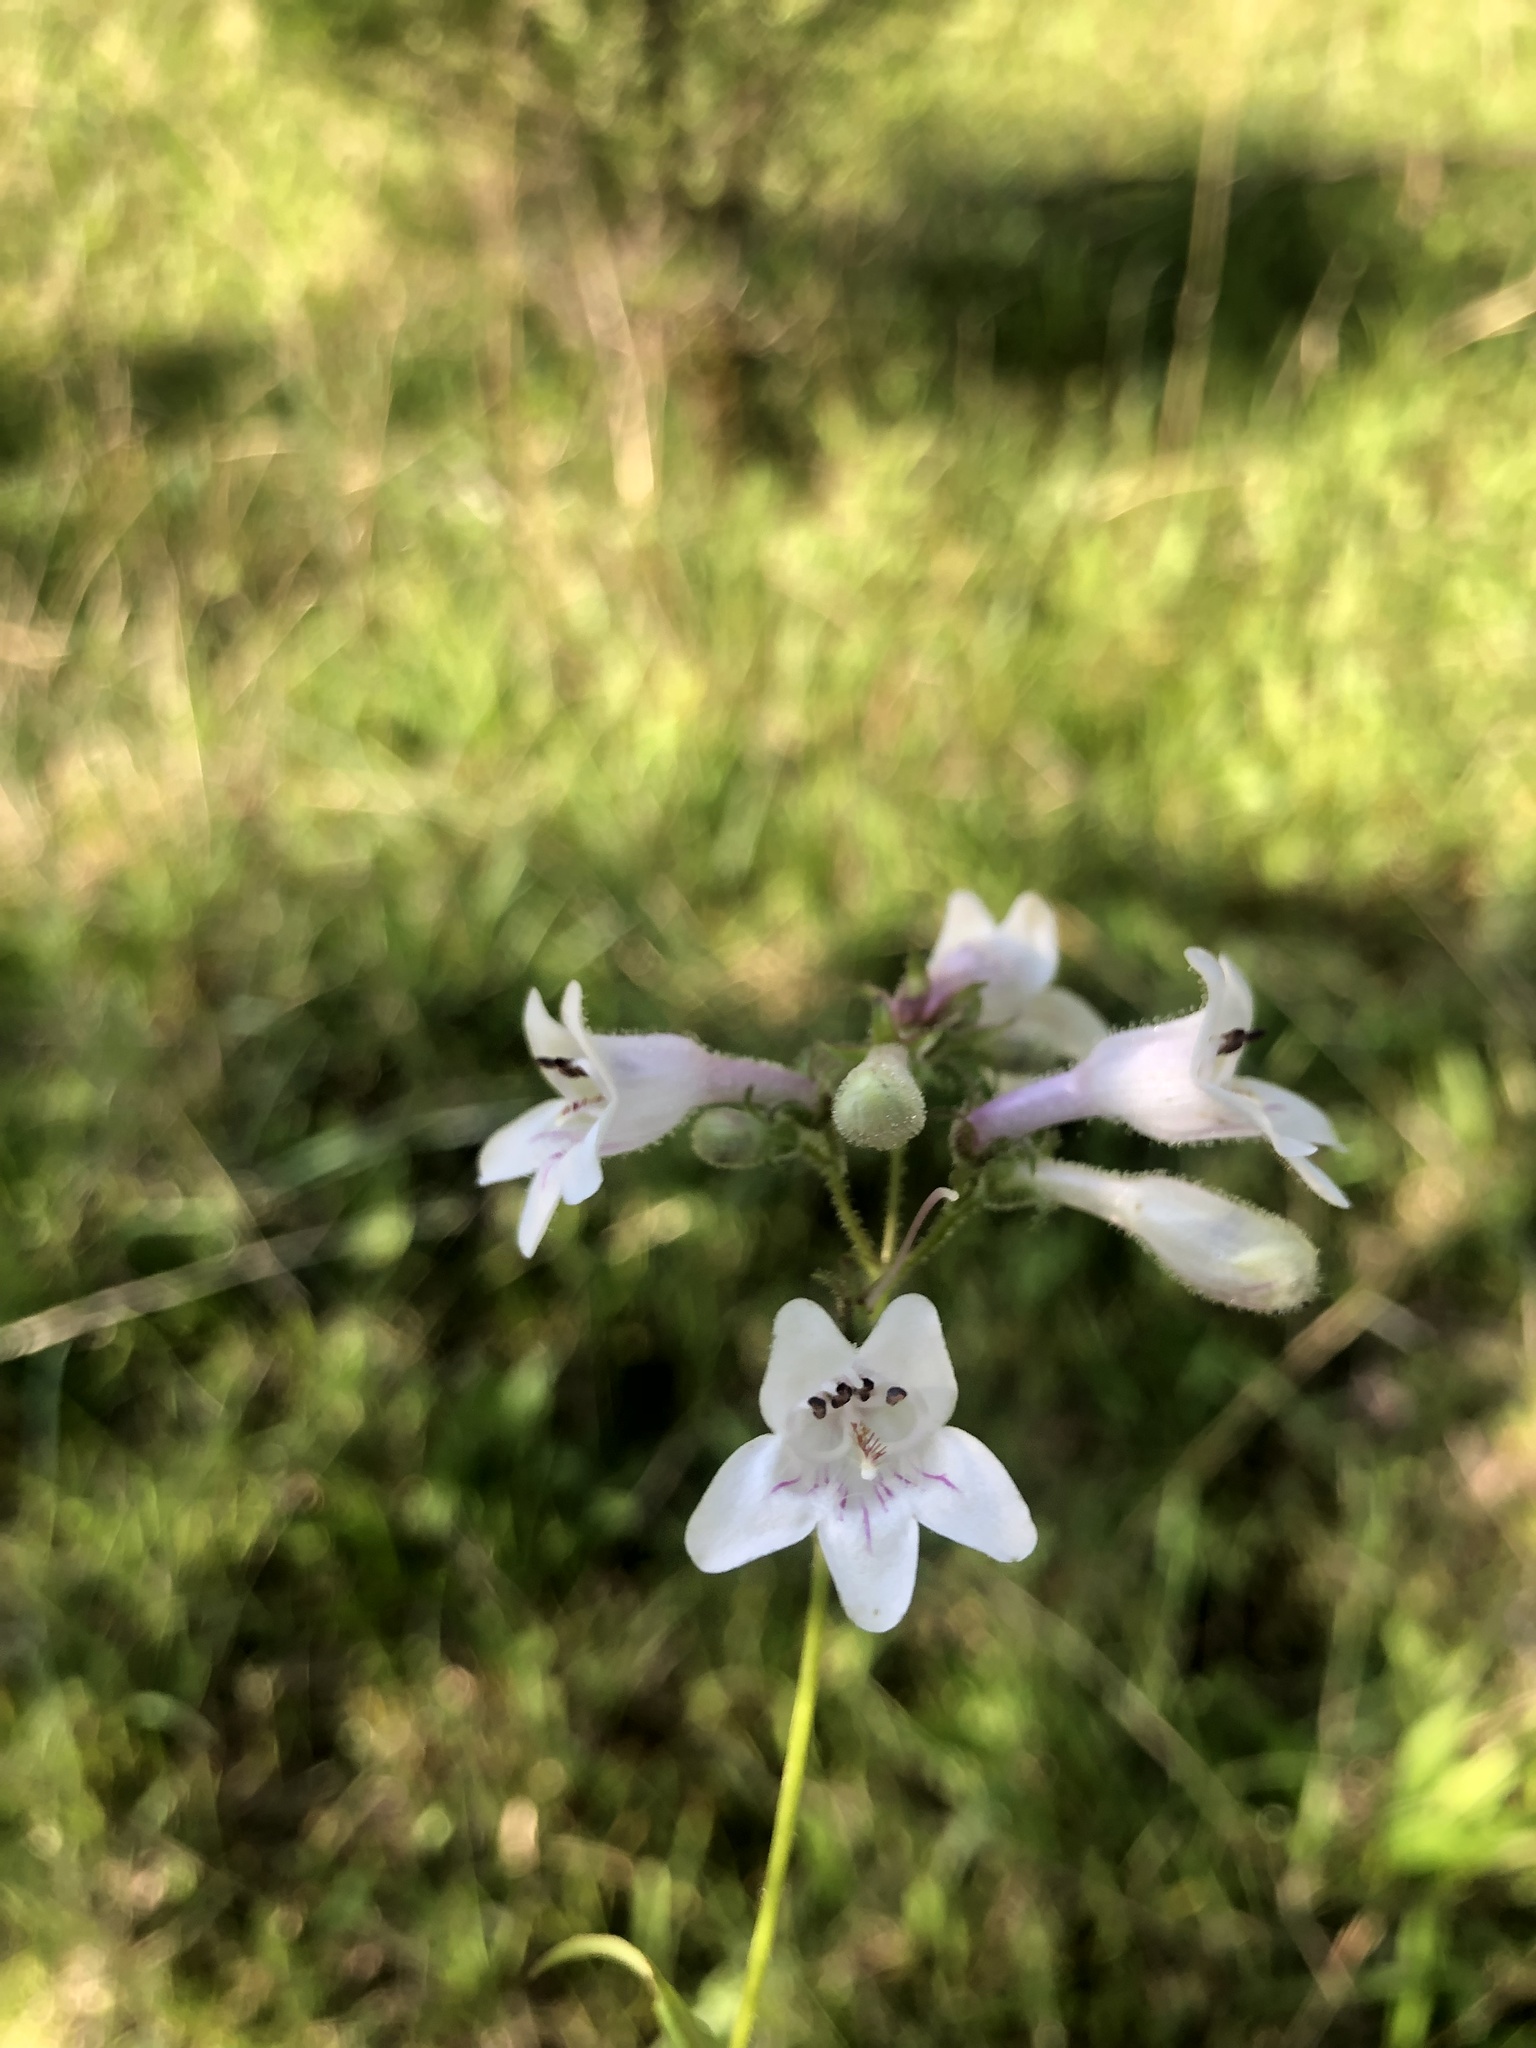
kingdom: Plantae
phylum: Tracheophyta
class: Magnoliopsida
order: Lamiales
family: Plantaginaceae
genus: Penstemon
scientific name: Penstemon laevigatus
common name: Eastern beardtongue
